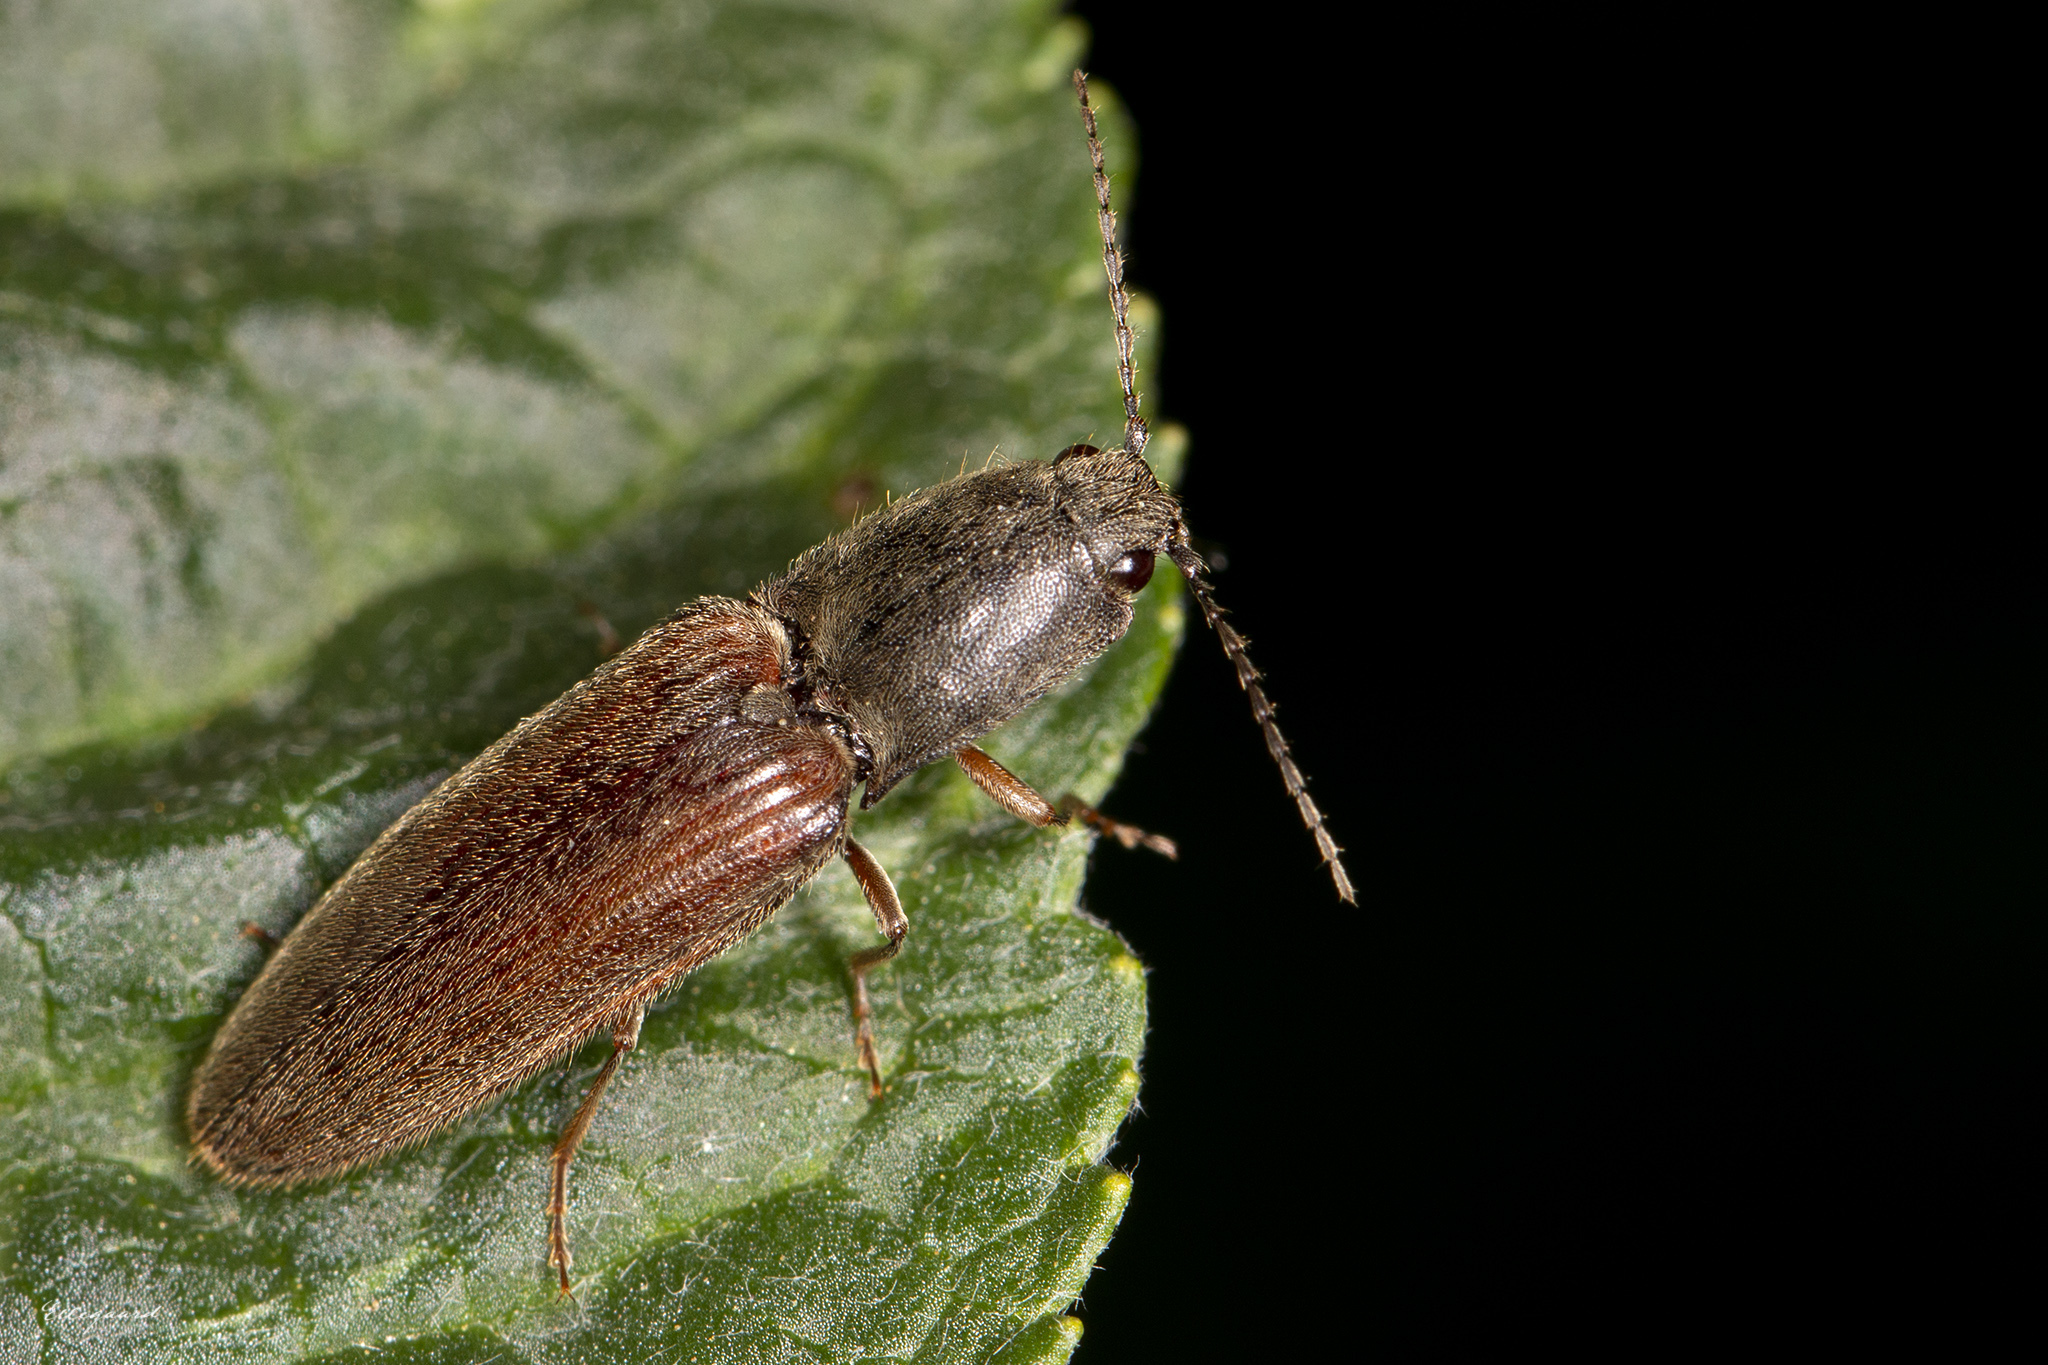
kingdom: Animalia
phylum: Arthropoda
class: Insecta
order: Coleoptera
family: Elateridae
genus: Athous
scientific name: Athous haemorrhoidalis
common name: Red-brown click beetle
